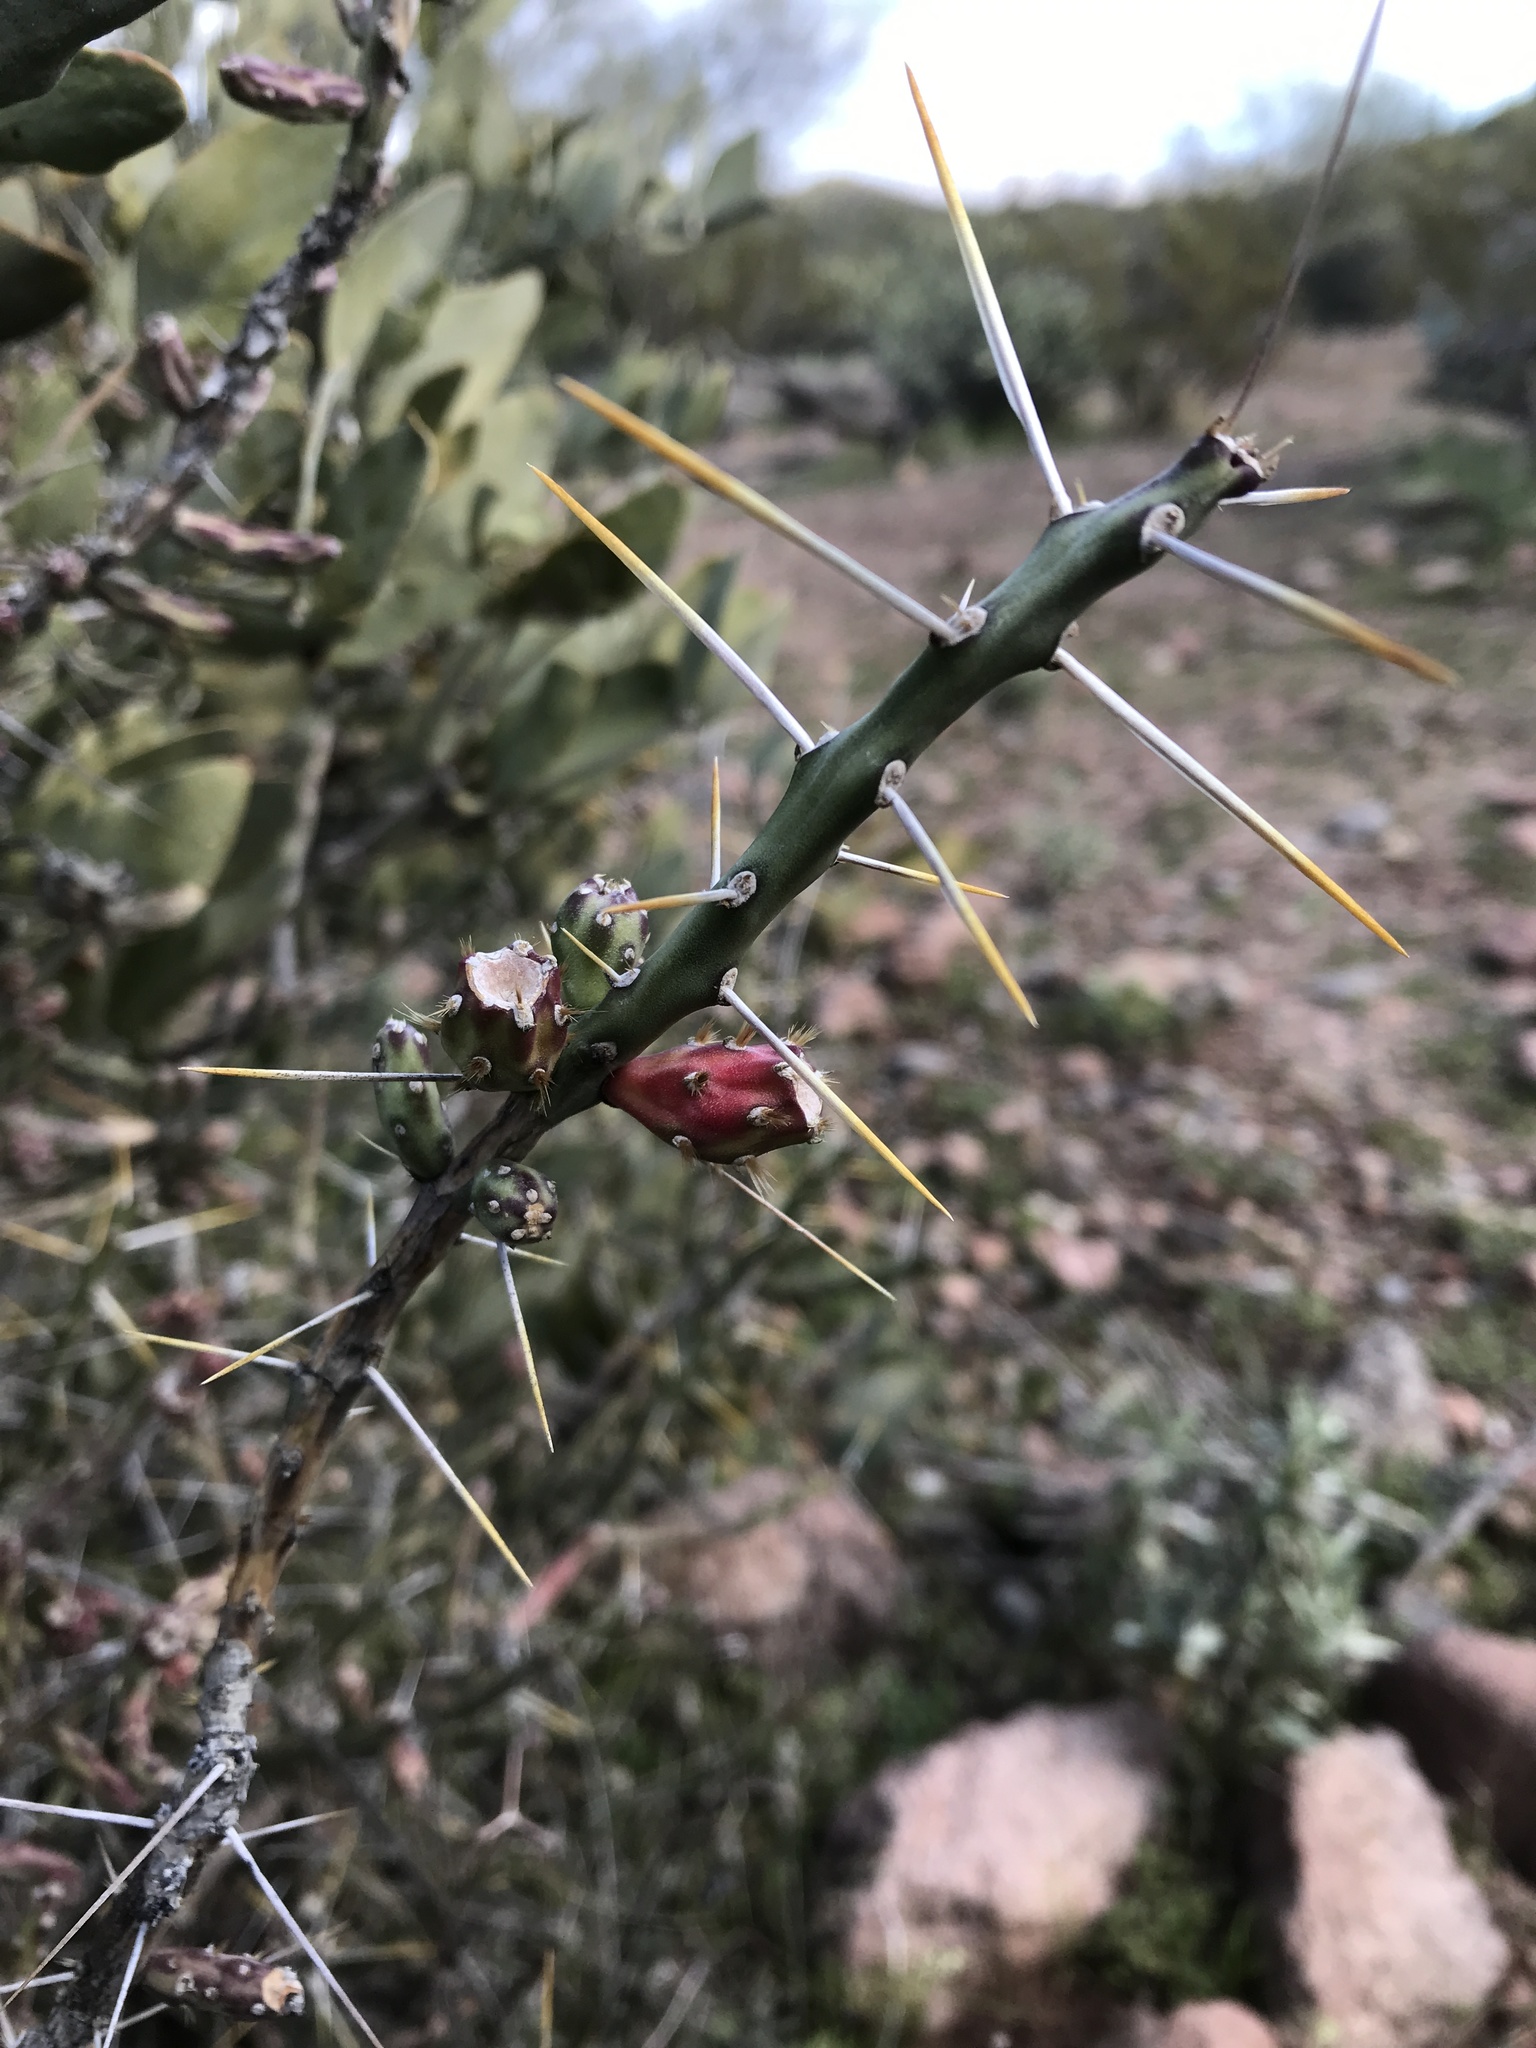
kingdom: Plantae
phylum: Tracheophyta
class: Magnoliopsida
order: Caryophyllales
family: Cactaceae
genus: Cylindropuntia
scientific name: Cylindropuntia leptocaulis
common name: Christmas cactus
